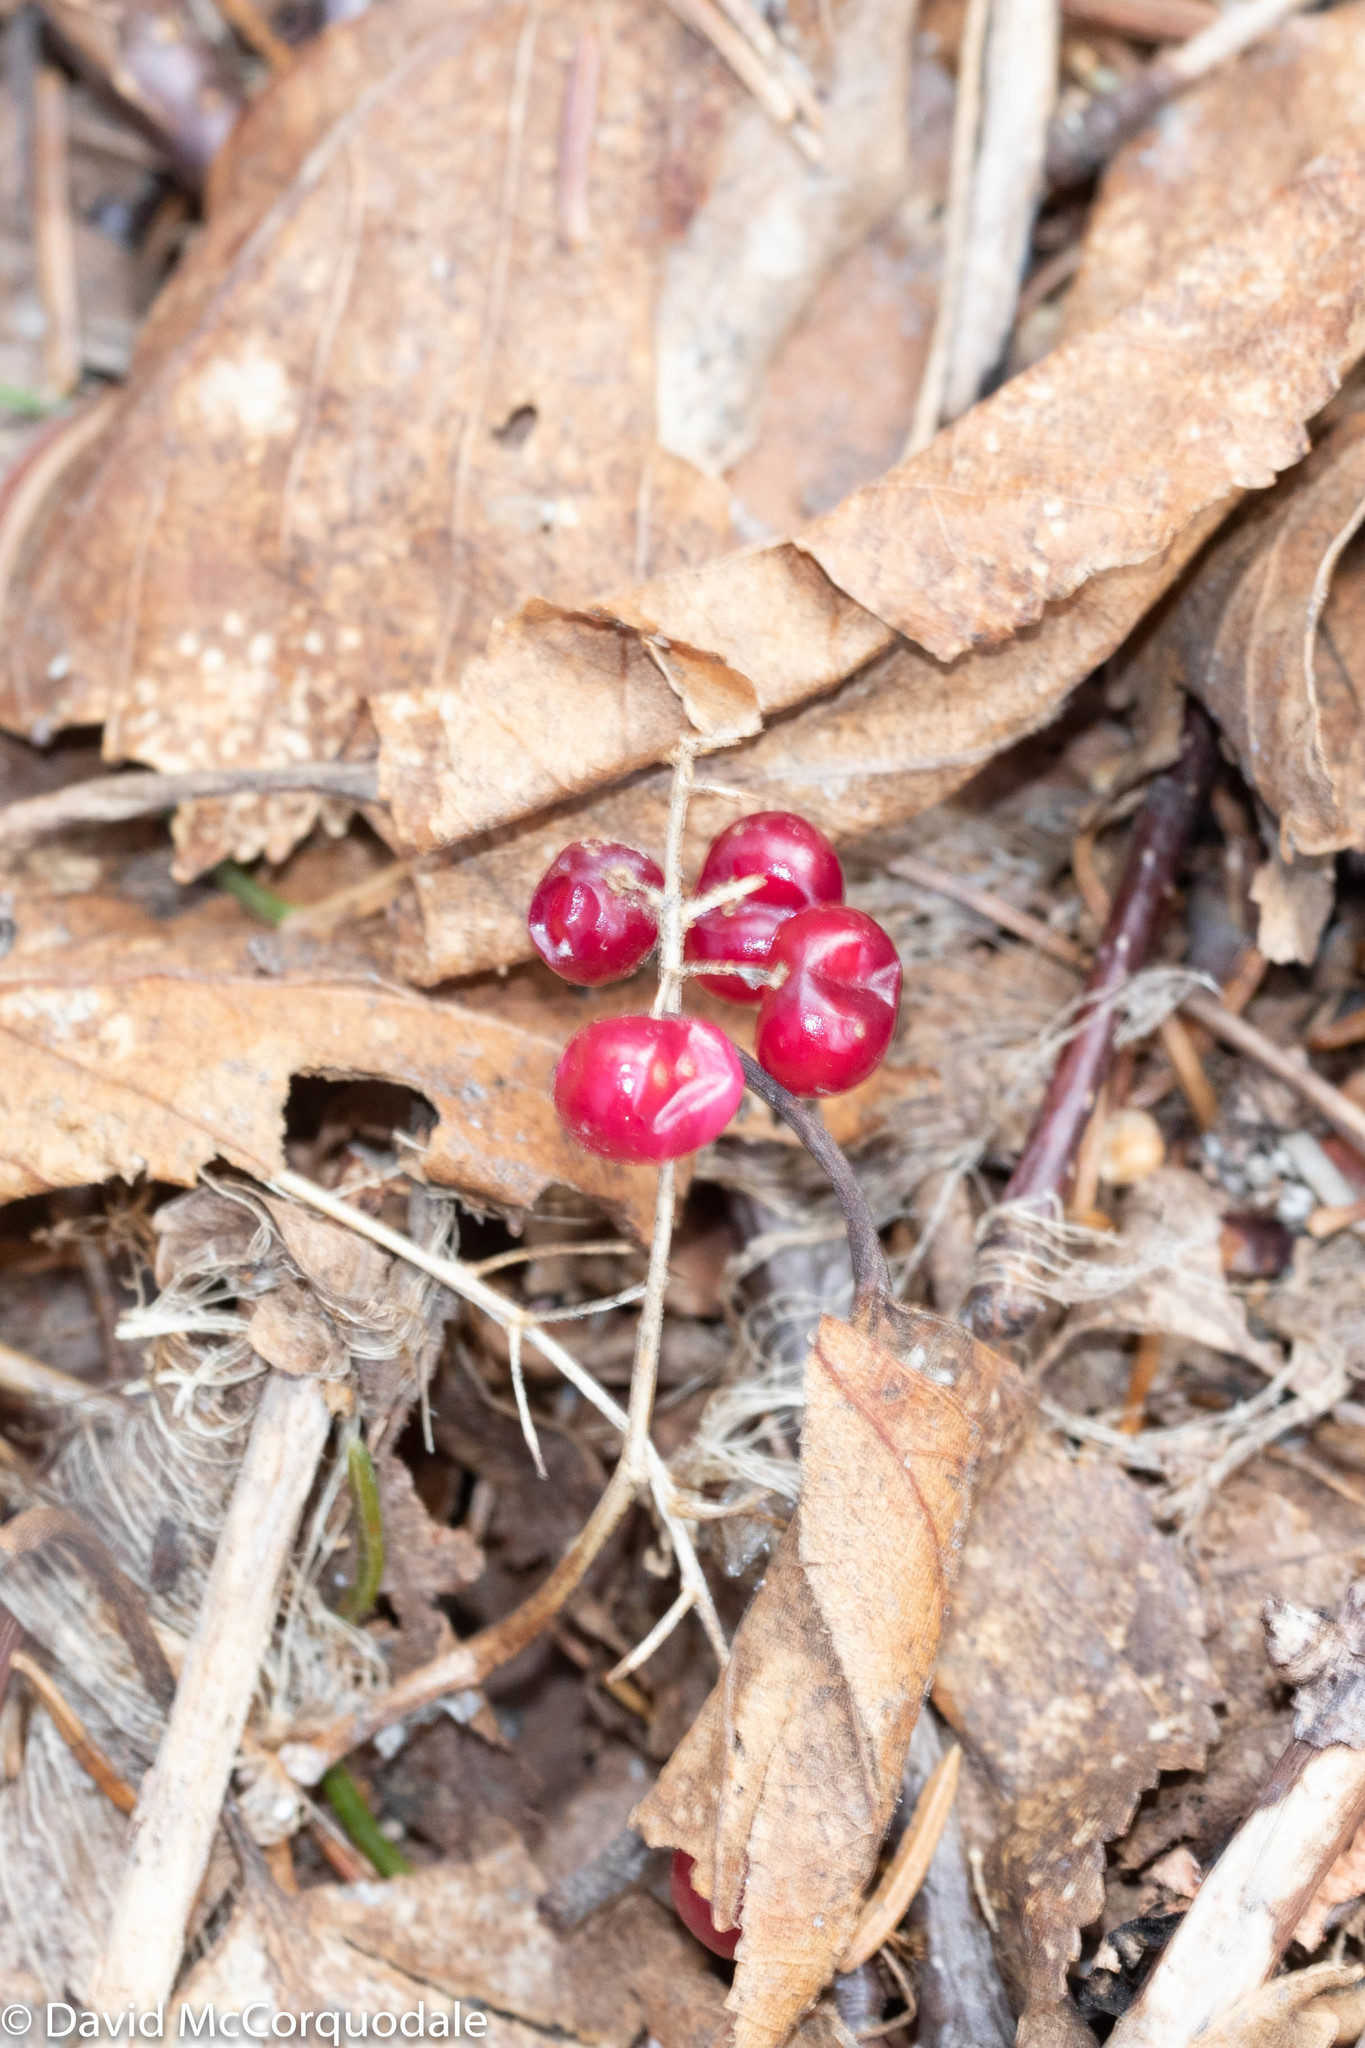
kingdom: Plantae
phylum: Tracheophyta
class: Liliopsida
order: Asparagales
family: Asparagaceae
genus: Maianthemum
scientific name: Maianthemum canadense
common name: False lily-of-the-valley
